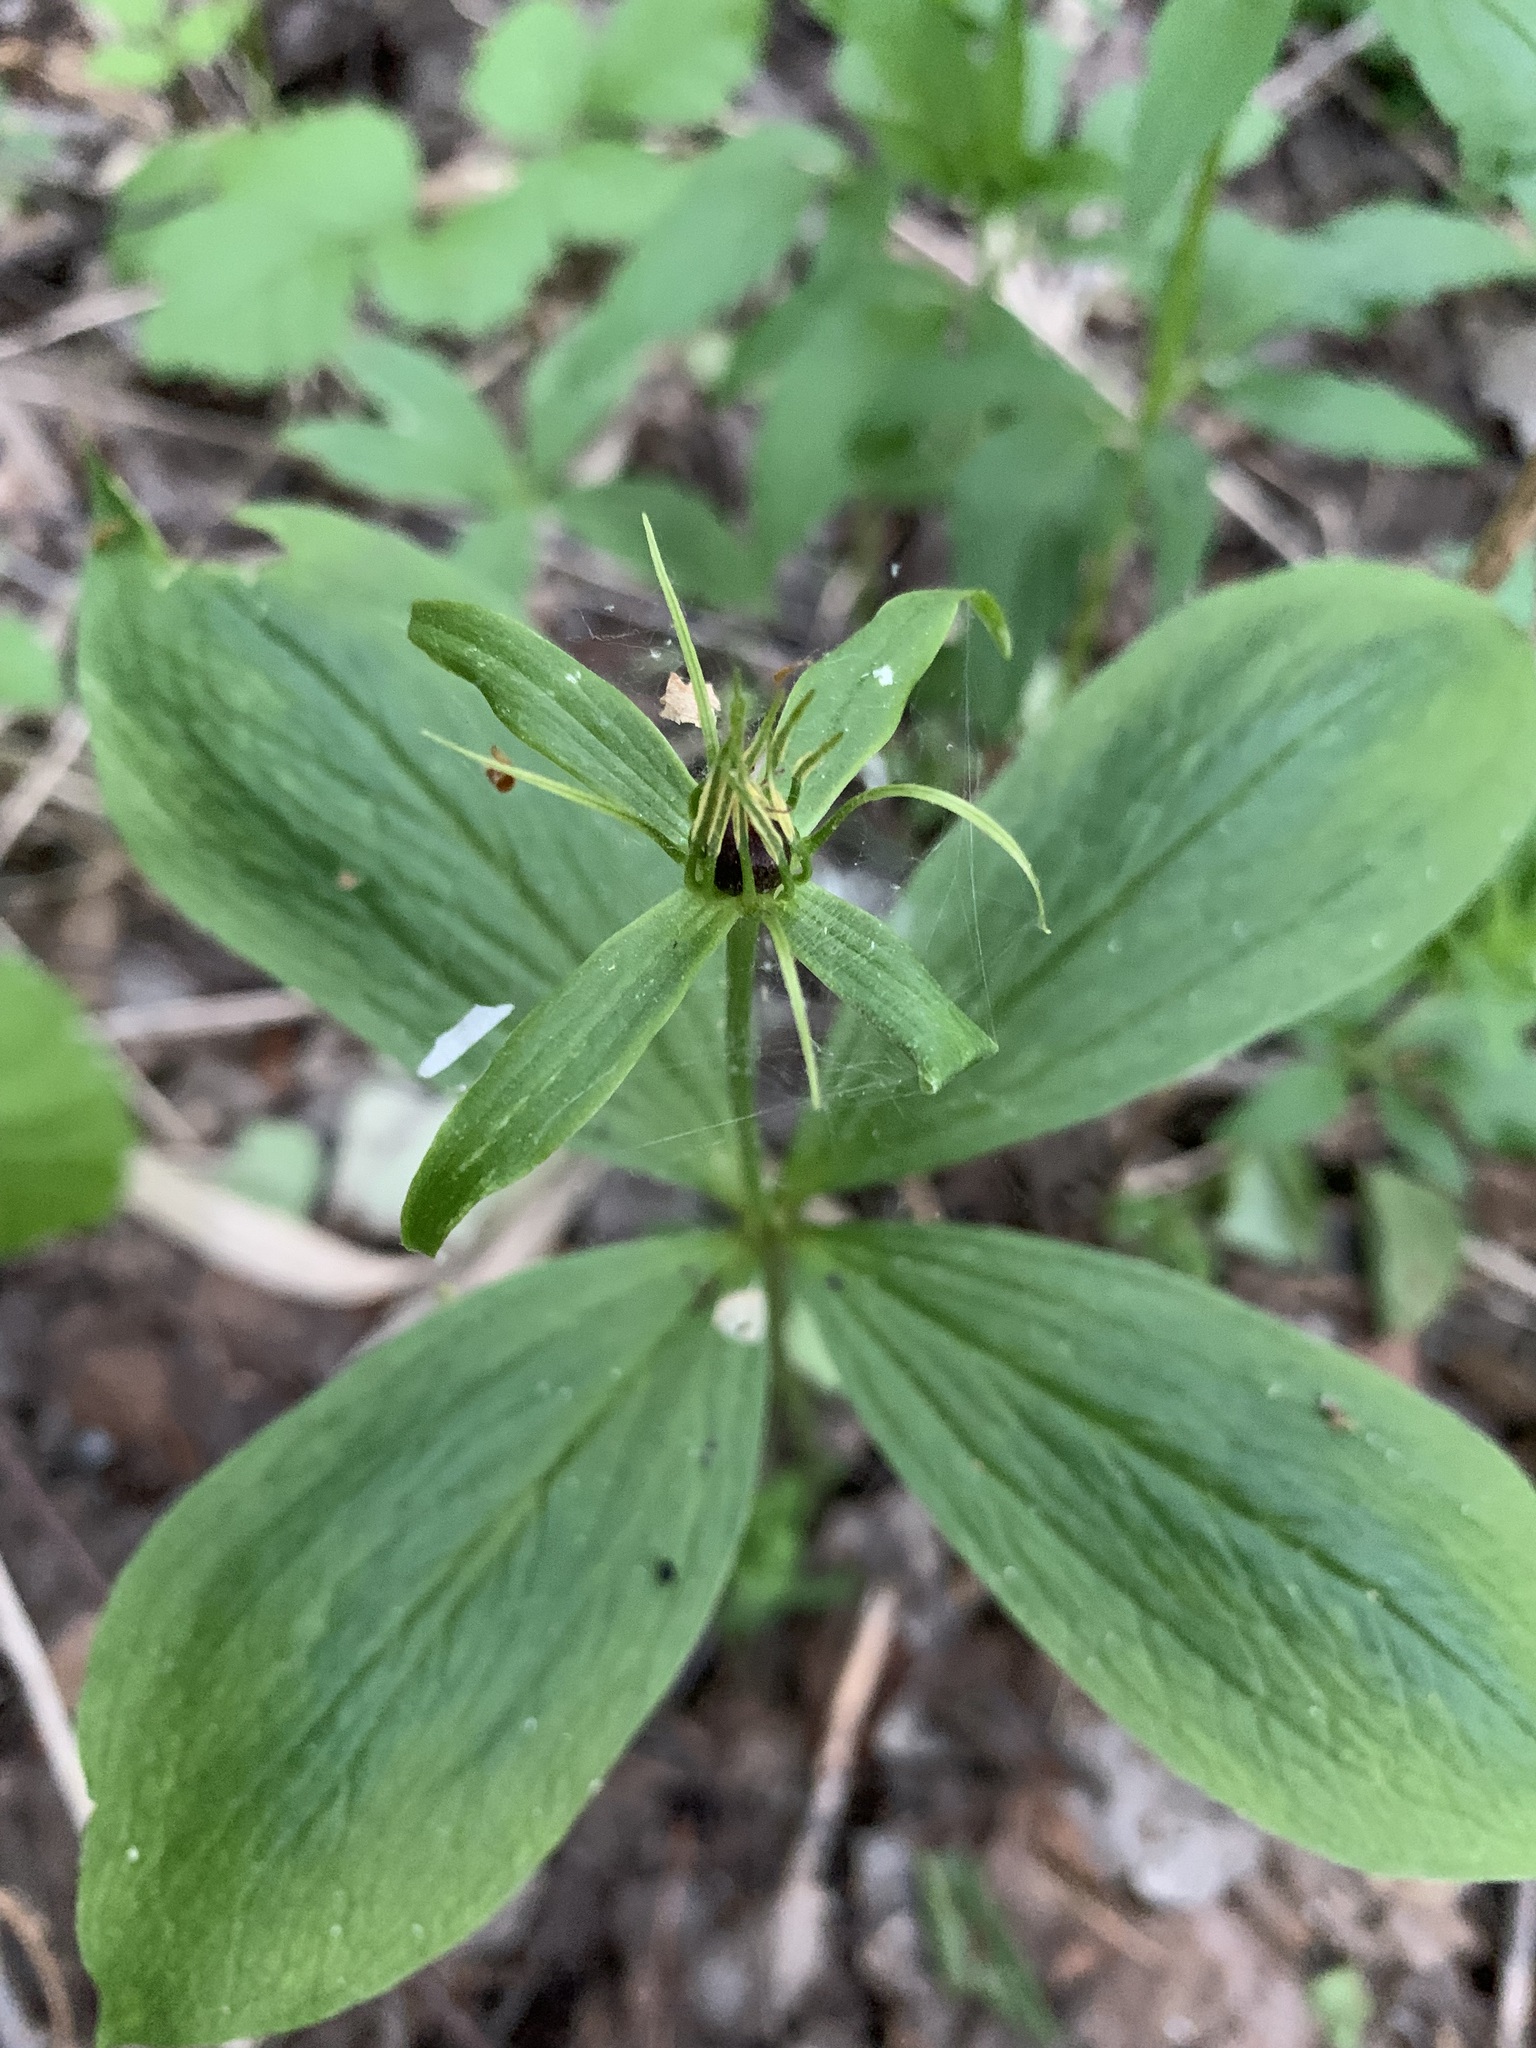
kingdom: Plantae
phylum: Tracheophyta
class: Liliopsida
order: Liliales
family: Melanthiaceae
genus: Paris
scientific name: Paris quadrifolia
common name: Herb-paris
